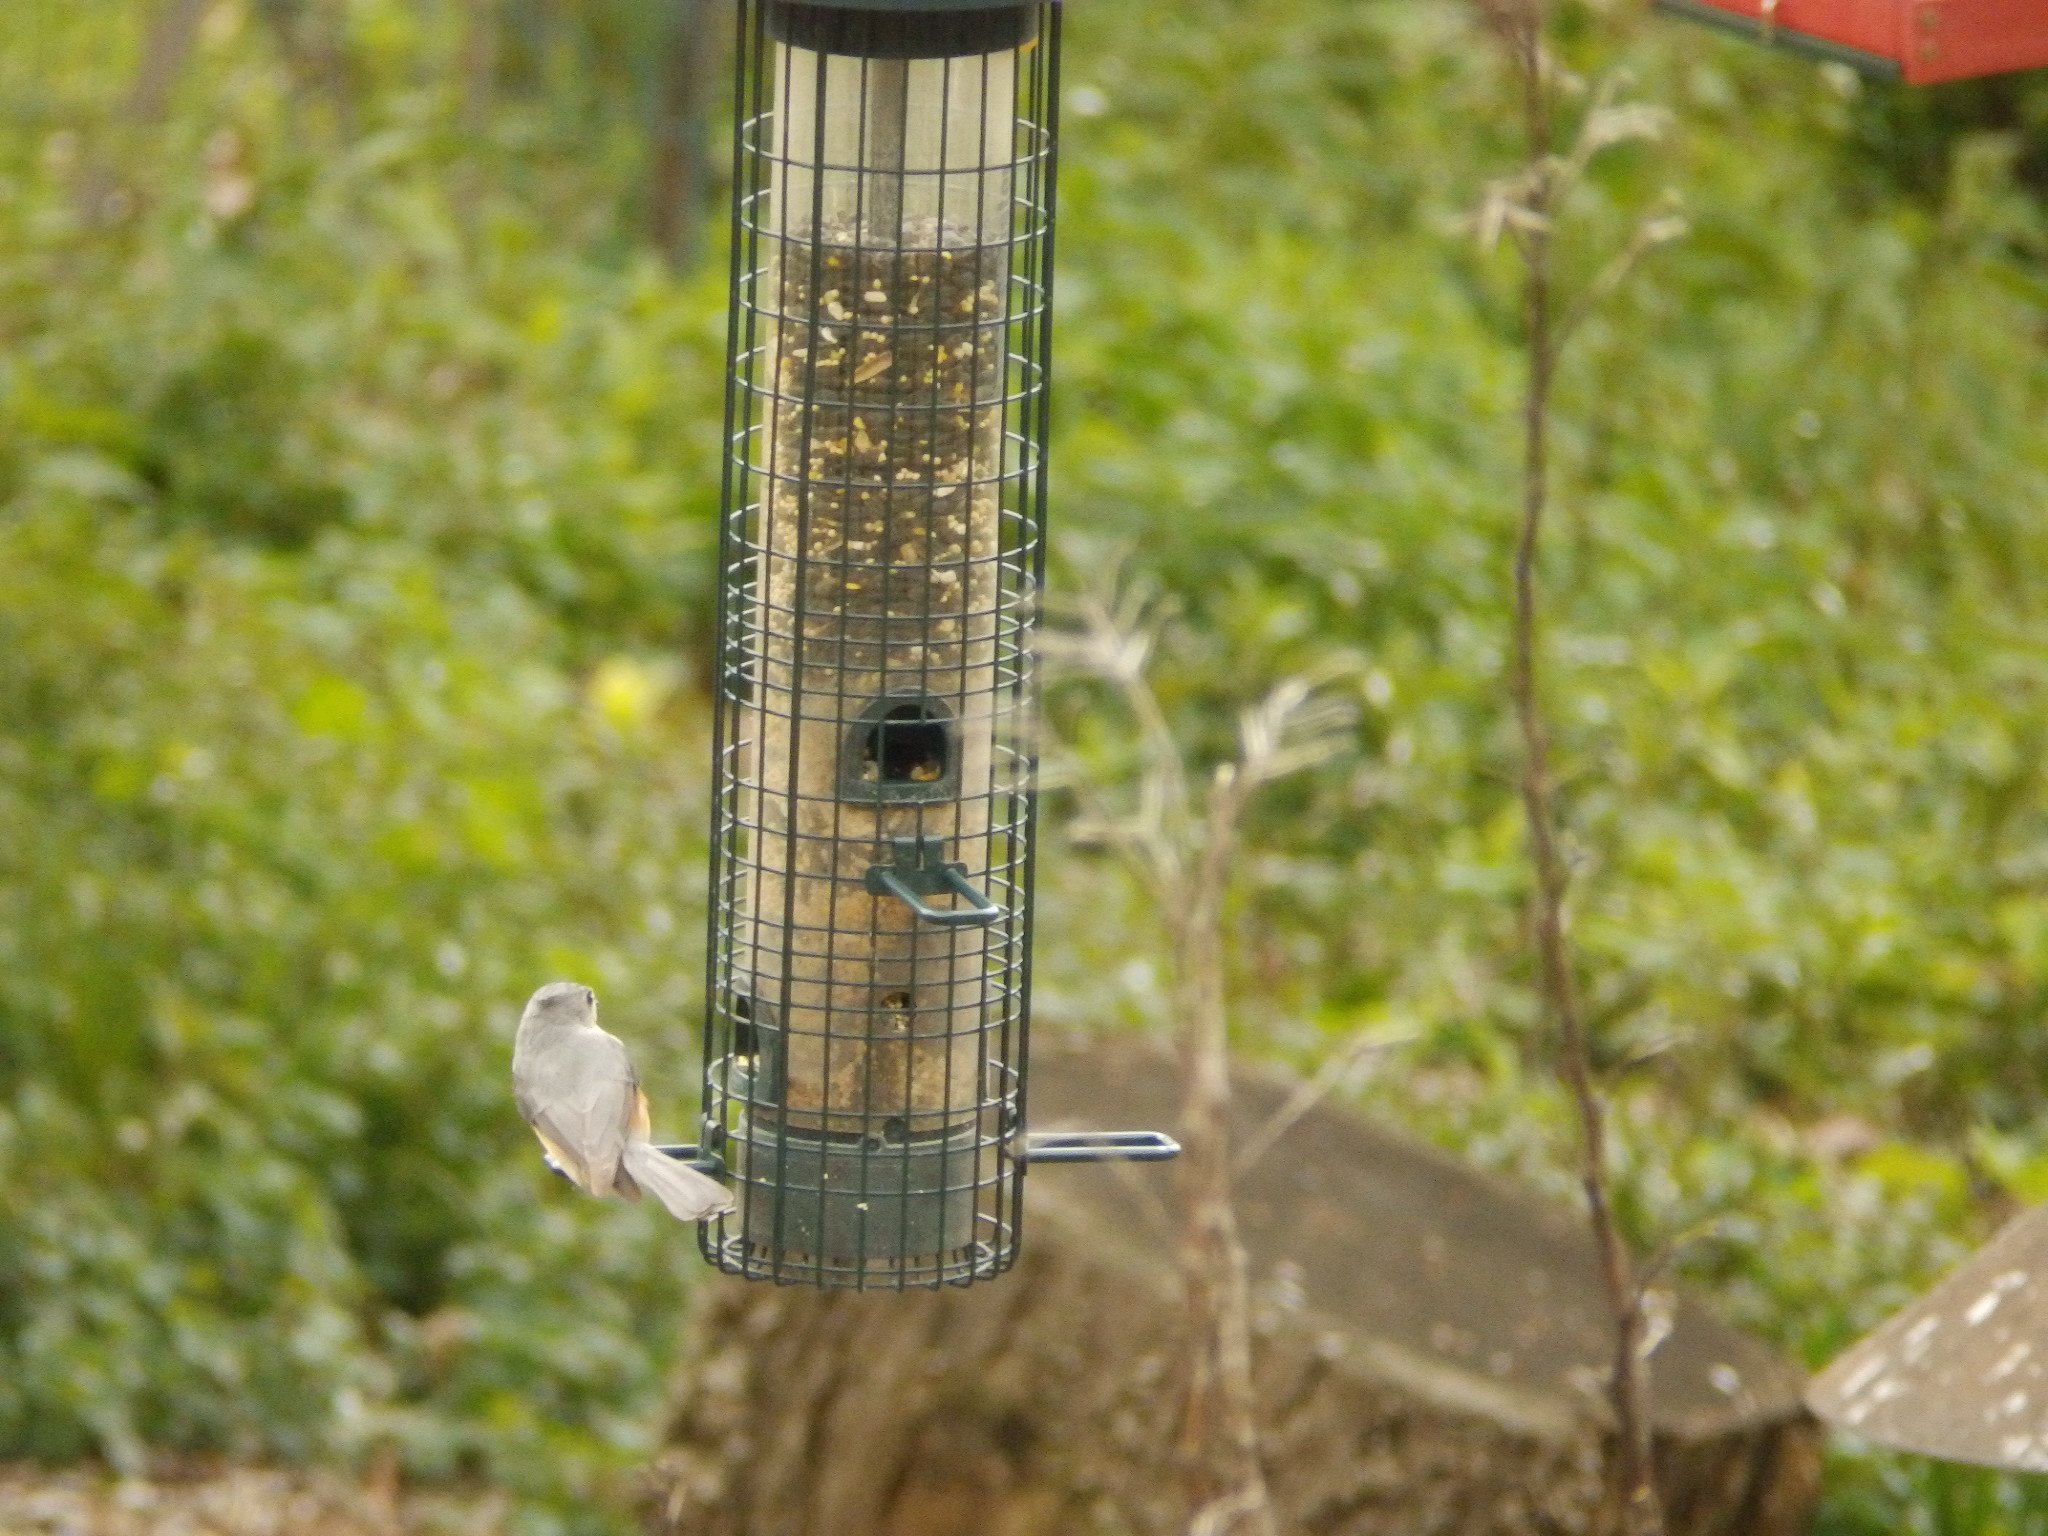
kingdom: Animalia
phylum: Chordata
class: Aves
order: Passeriformes
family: Paridae
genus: Baeolophus
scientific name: Baeolophus bicolor
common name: Tufted titmouse
